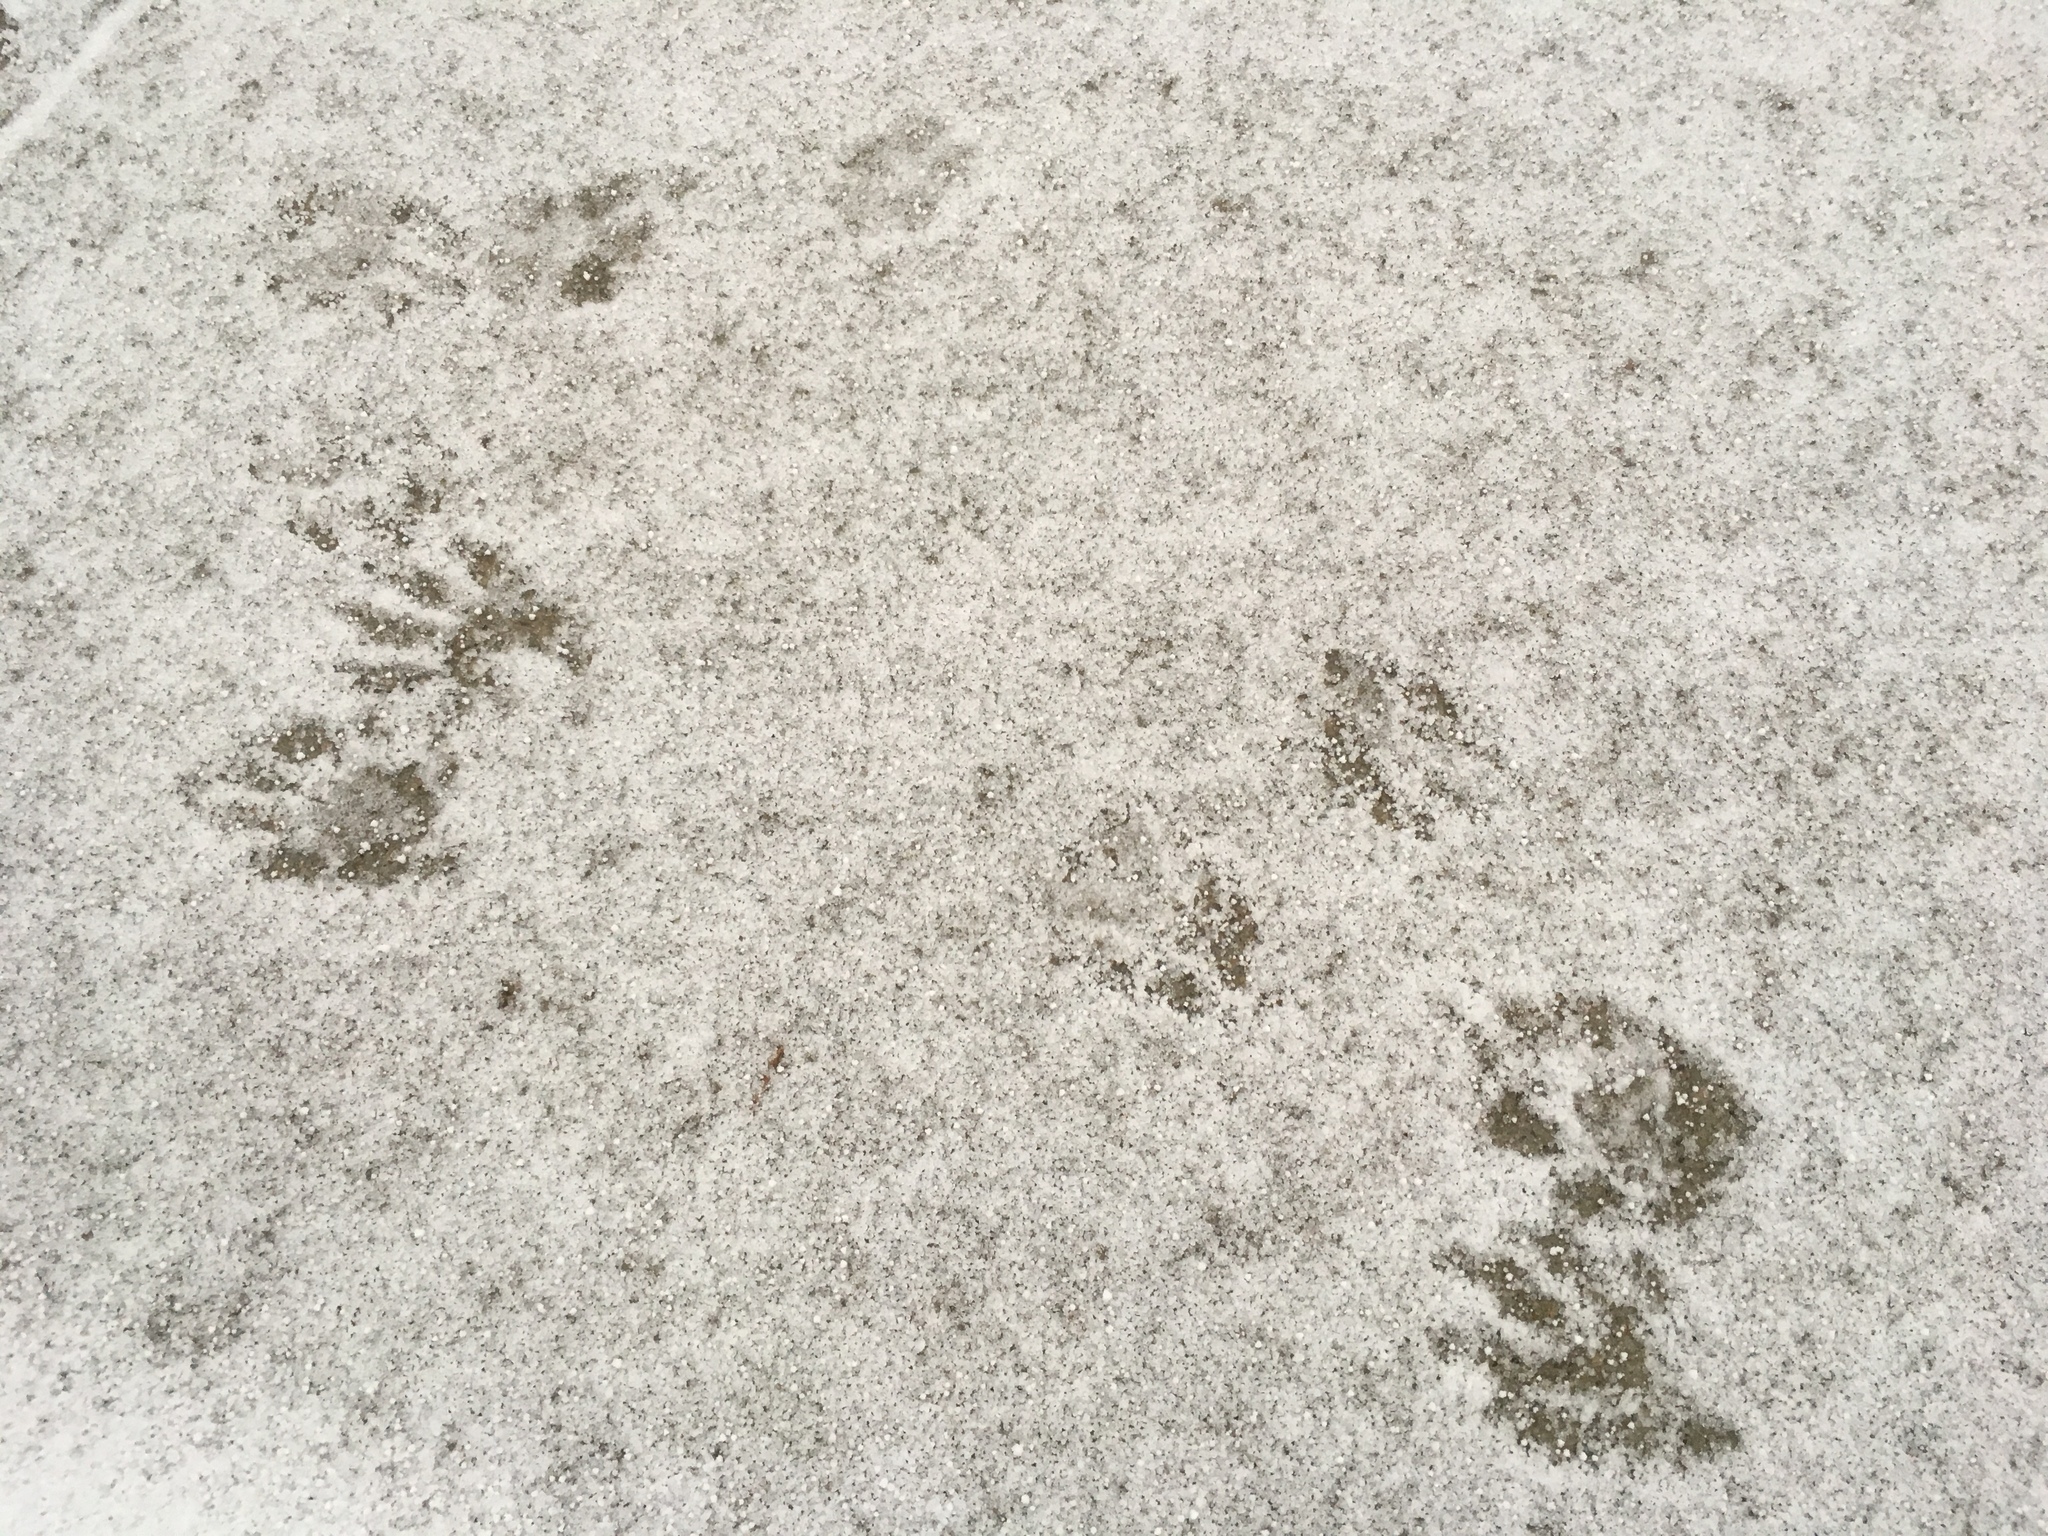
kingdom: Animalia
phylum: Chordata
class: Mammalia
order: Carnivora
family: Procyonidae
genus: Procyon
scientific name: Procyon lotor
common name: Raccoon
